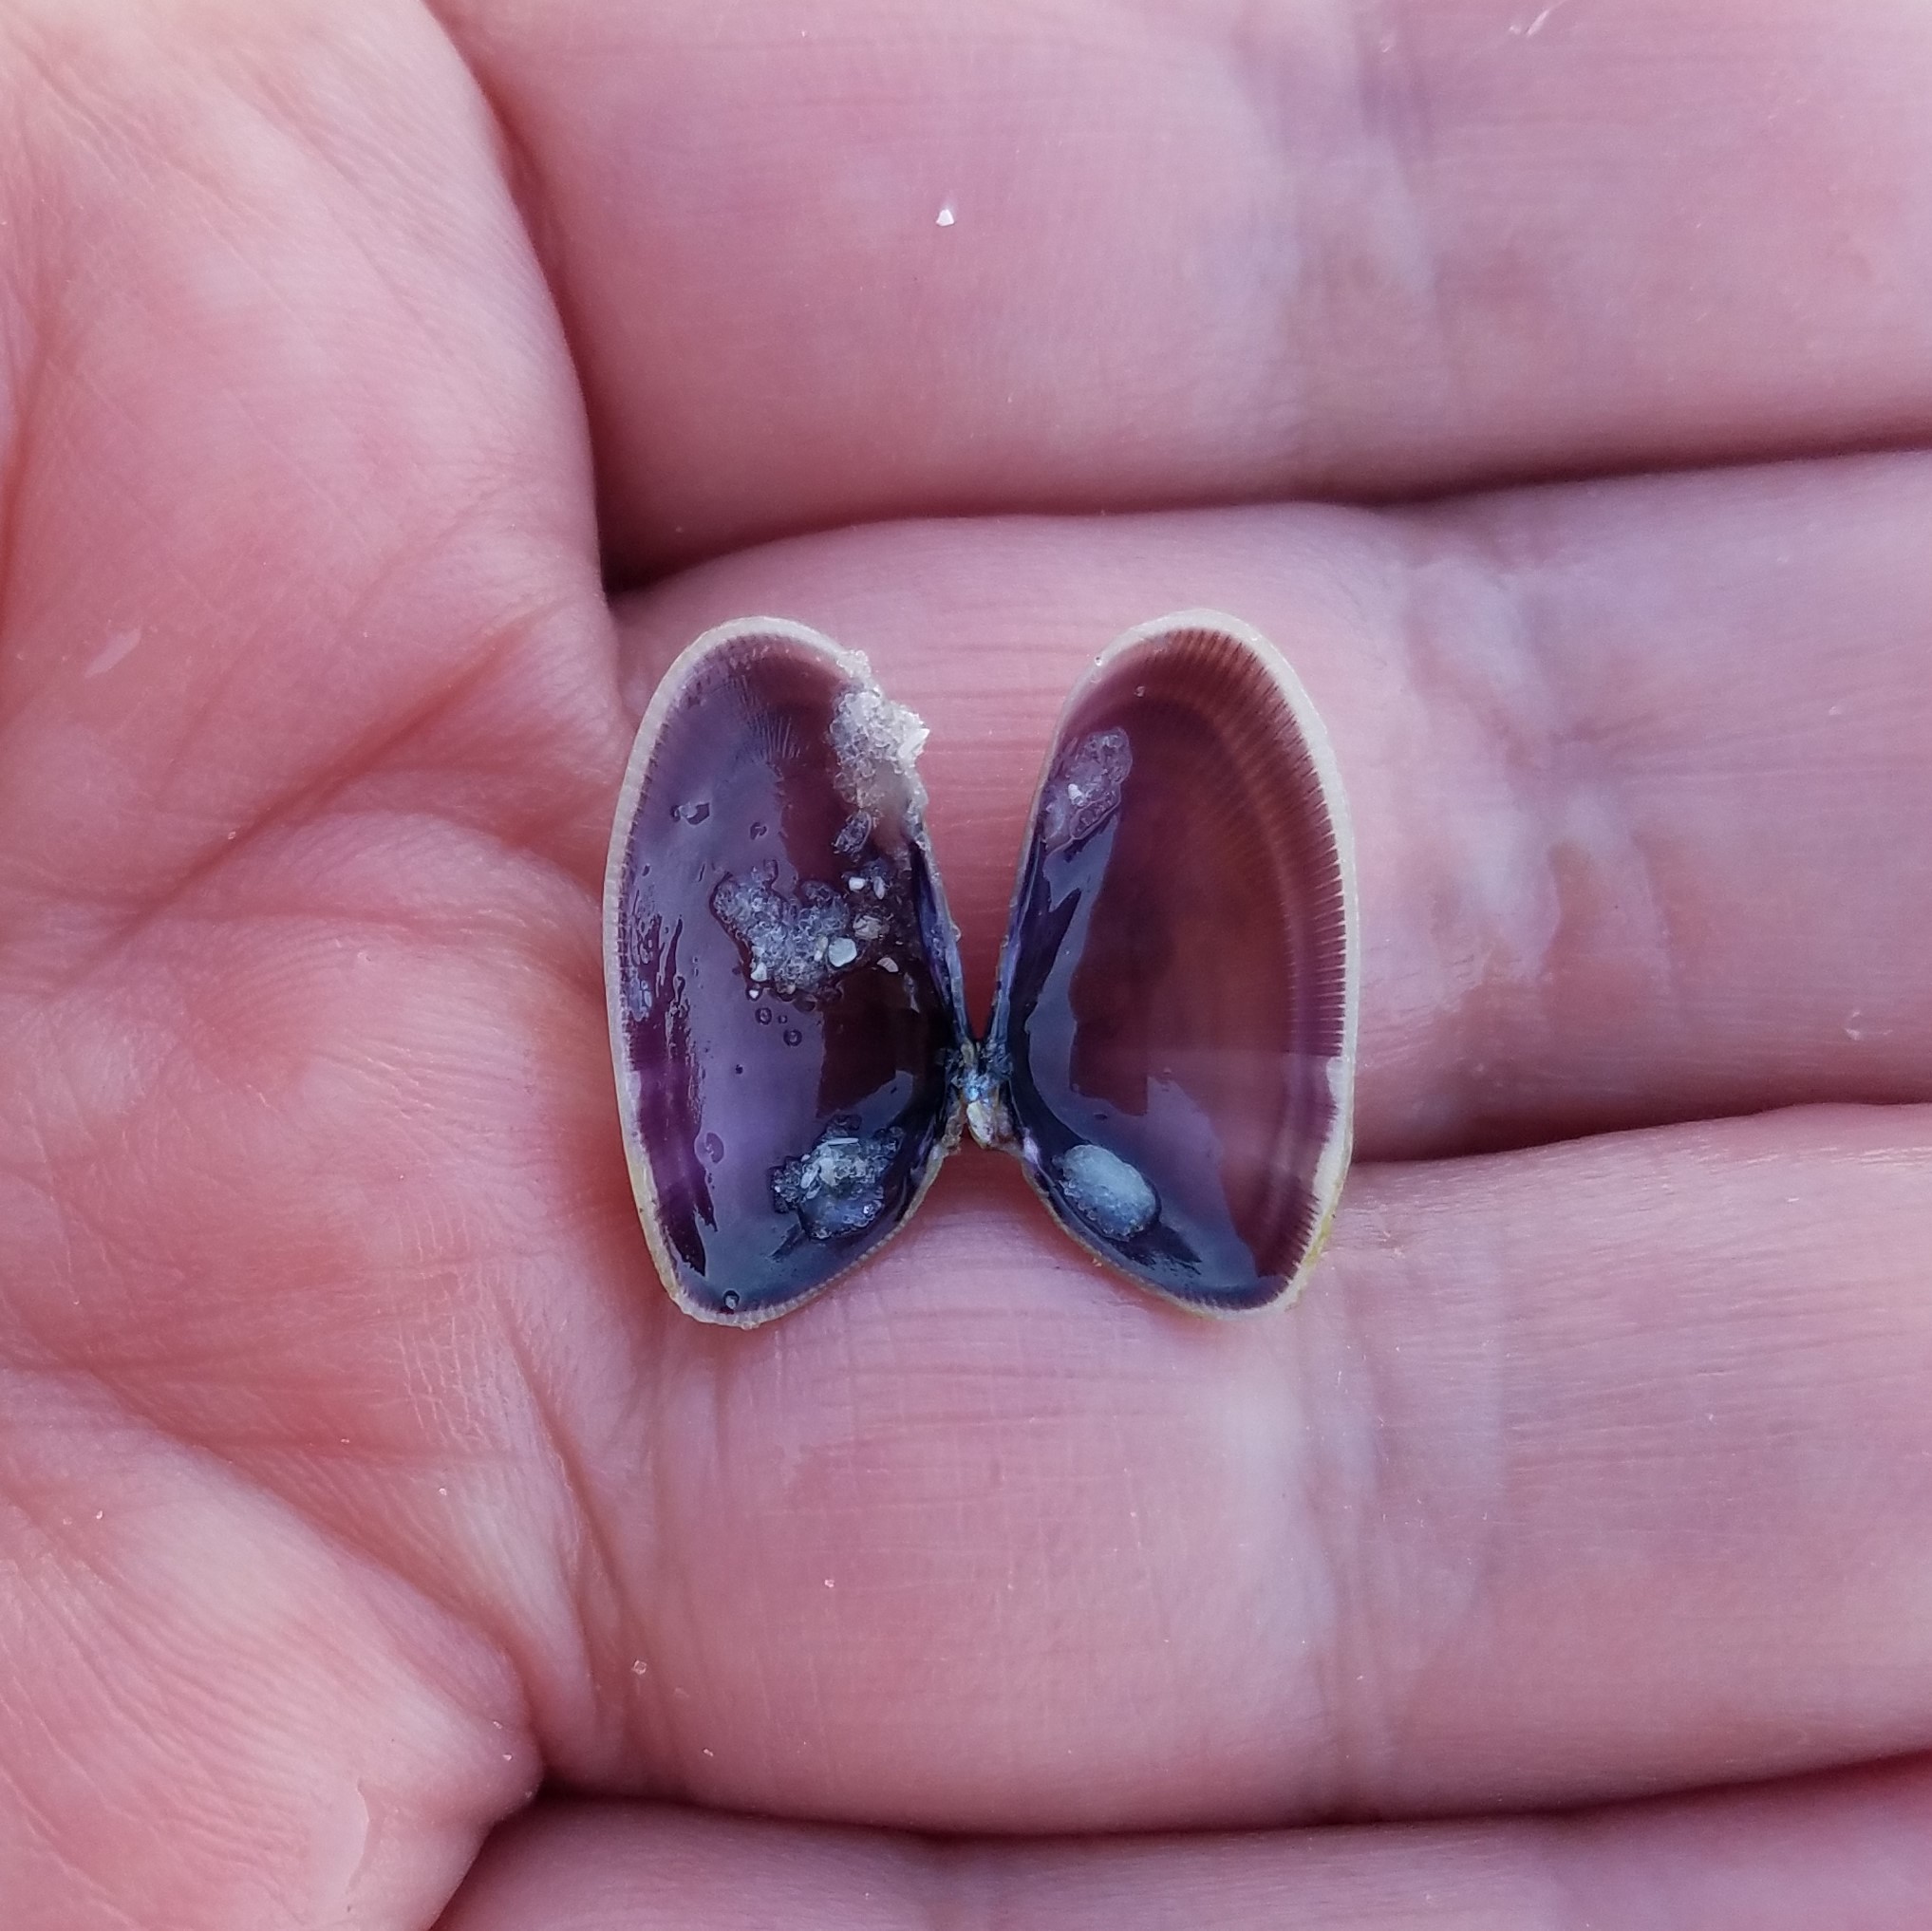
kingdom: Animalia
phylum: Mollusca
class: Bivalvia
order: Cardiida
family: Donacidae
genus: Donax
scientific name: Donax variabilis
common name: Butterfly shell
